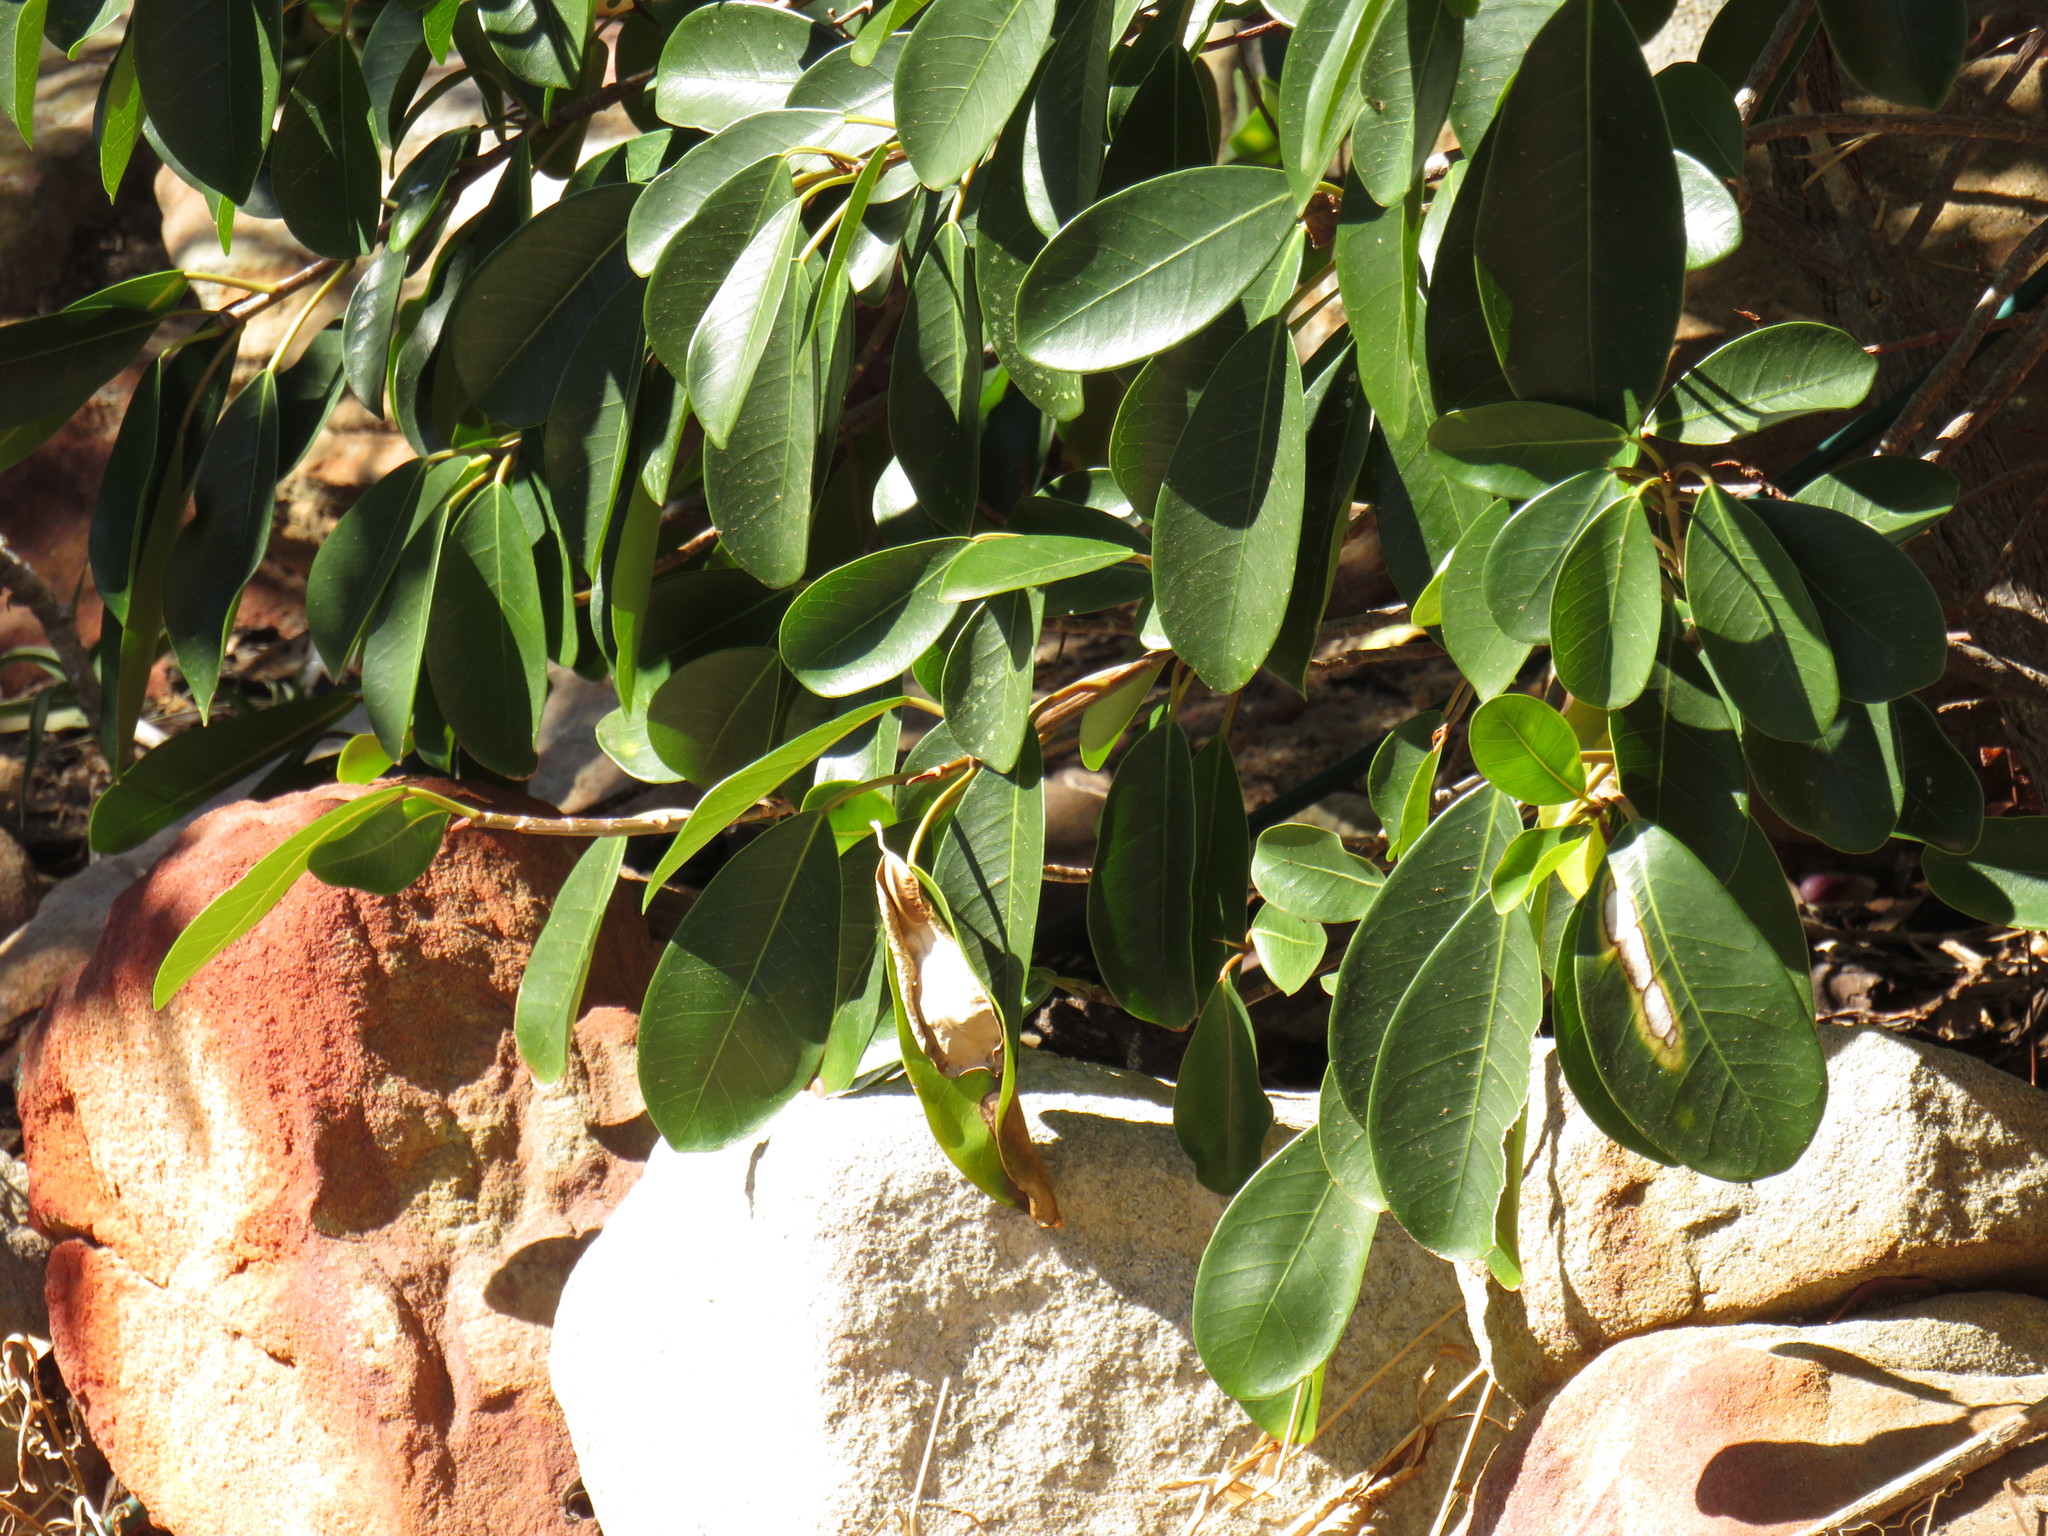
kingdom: Plantae
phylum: Tracheophyta
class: Magnoliopsida
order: Rosales
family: Moraceae
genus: Ficus
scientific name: Ficus thonningii
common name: Fig
